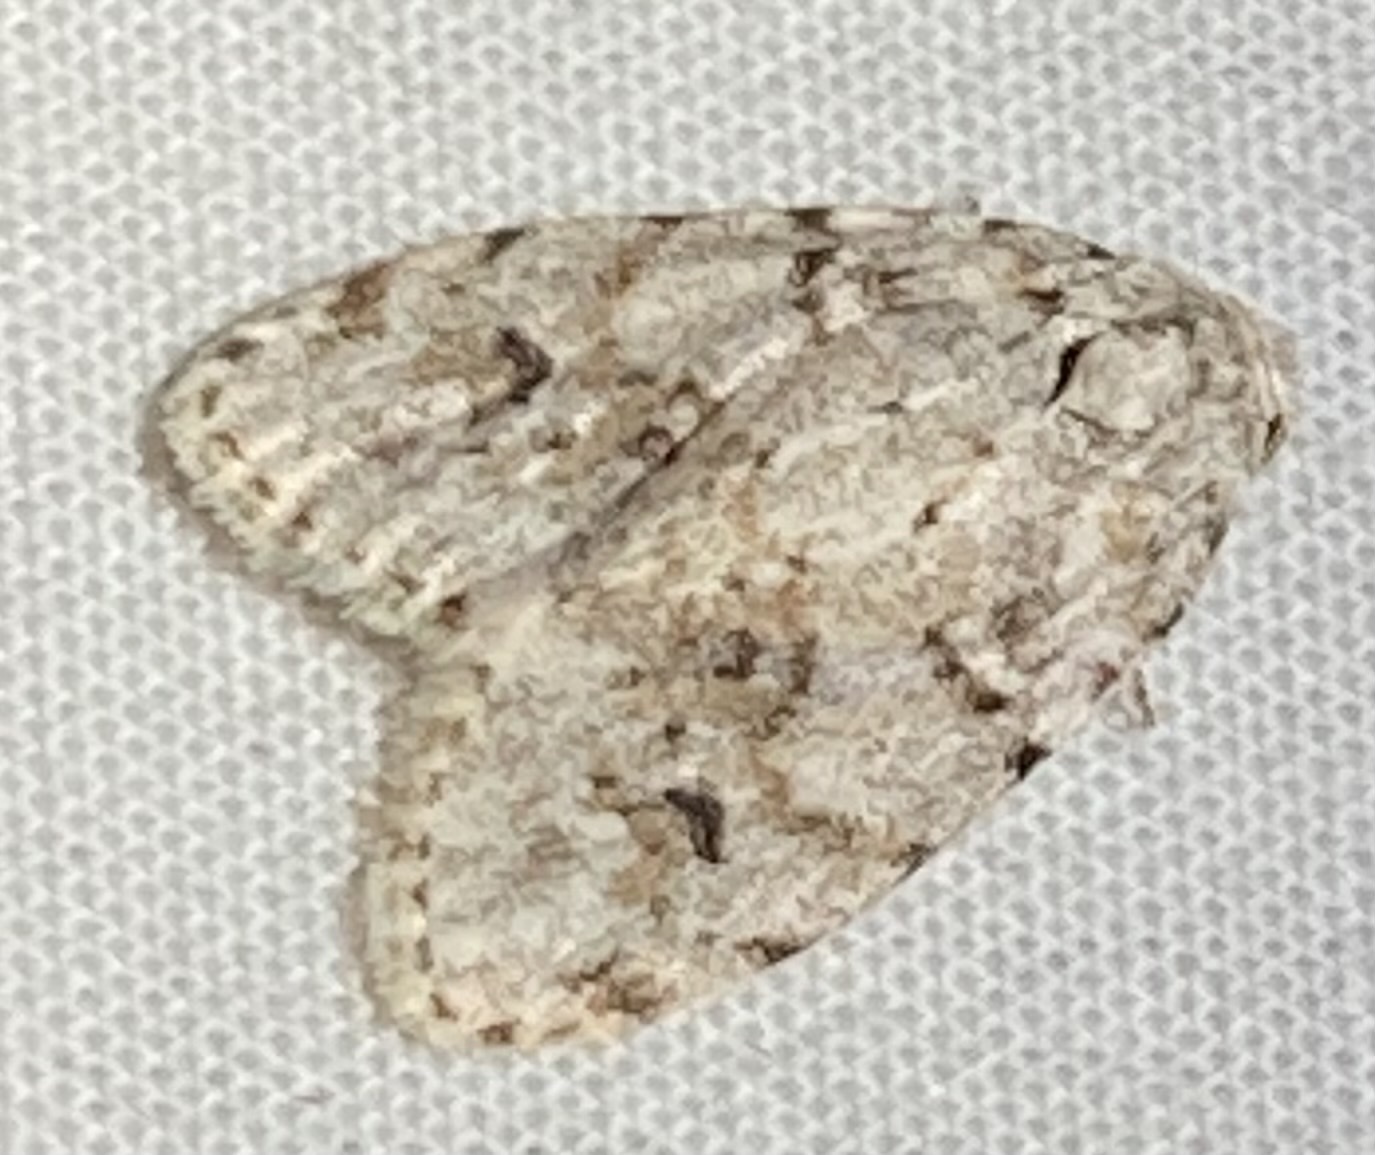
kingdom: Animalia
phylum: Arthropoda
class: Insecta
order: Lepidoptera
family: Erebidae
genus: Clemensia
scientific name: Clemensia albata
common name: Little white lichen moth
